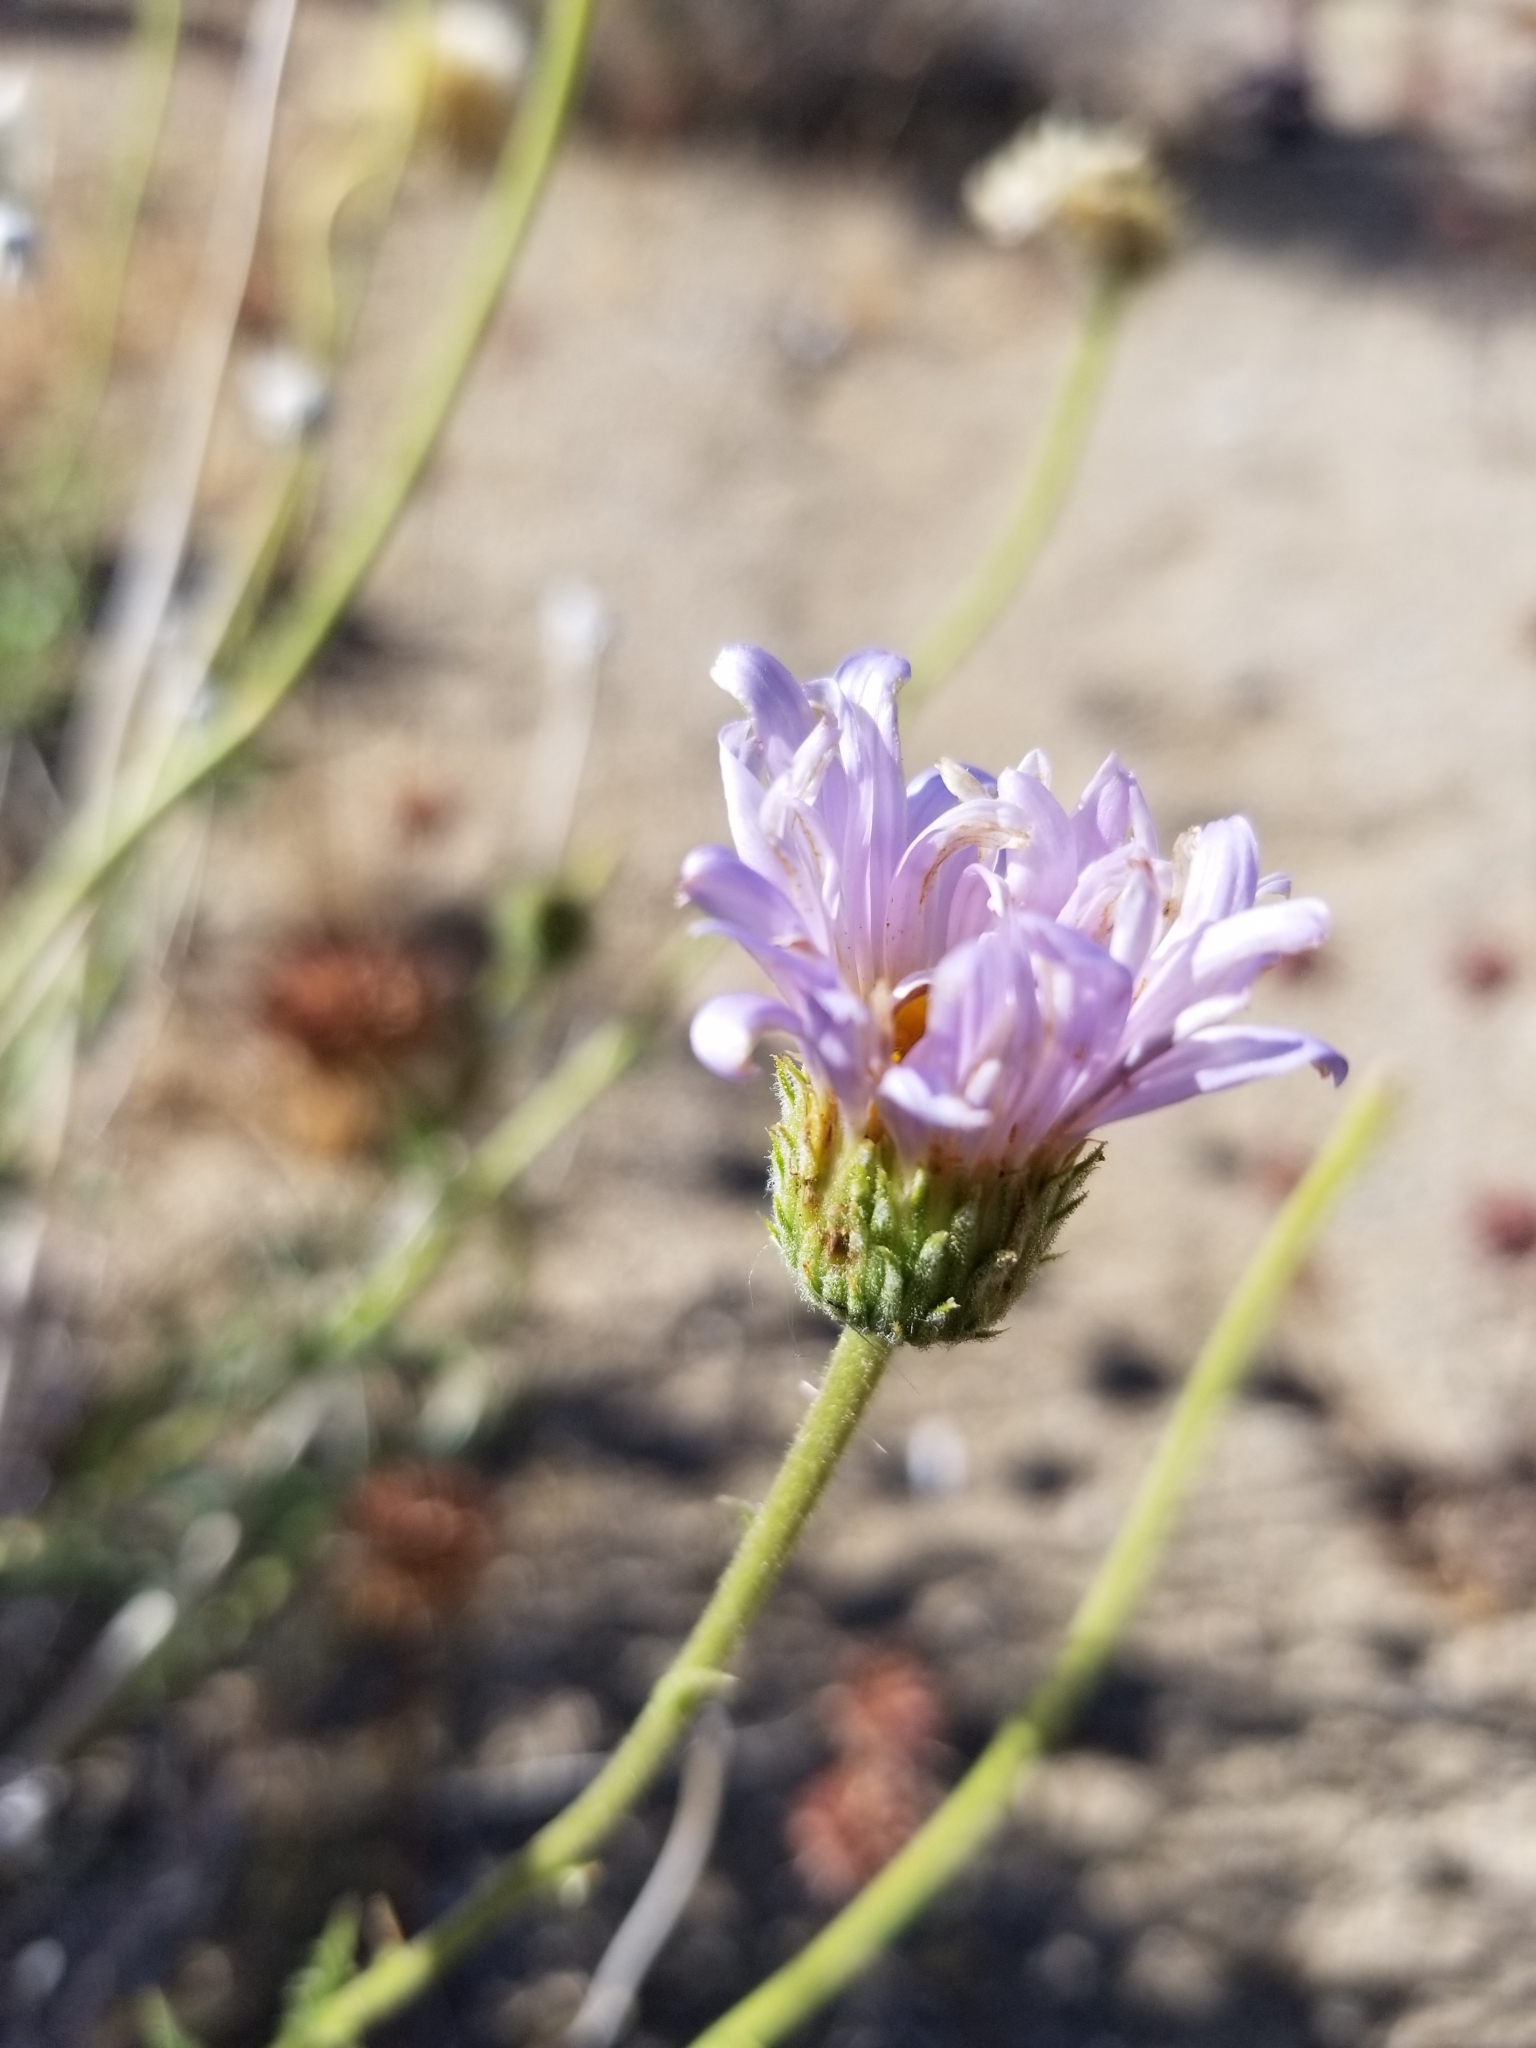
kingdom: Plantae
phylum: Tracheophyta
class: Magnoliopsida
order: Asterales
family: Asteraceae
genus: Xylorhiza
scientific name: Xylorhiza tortifolia
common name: Hurt-leaf woody-aster
